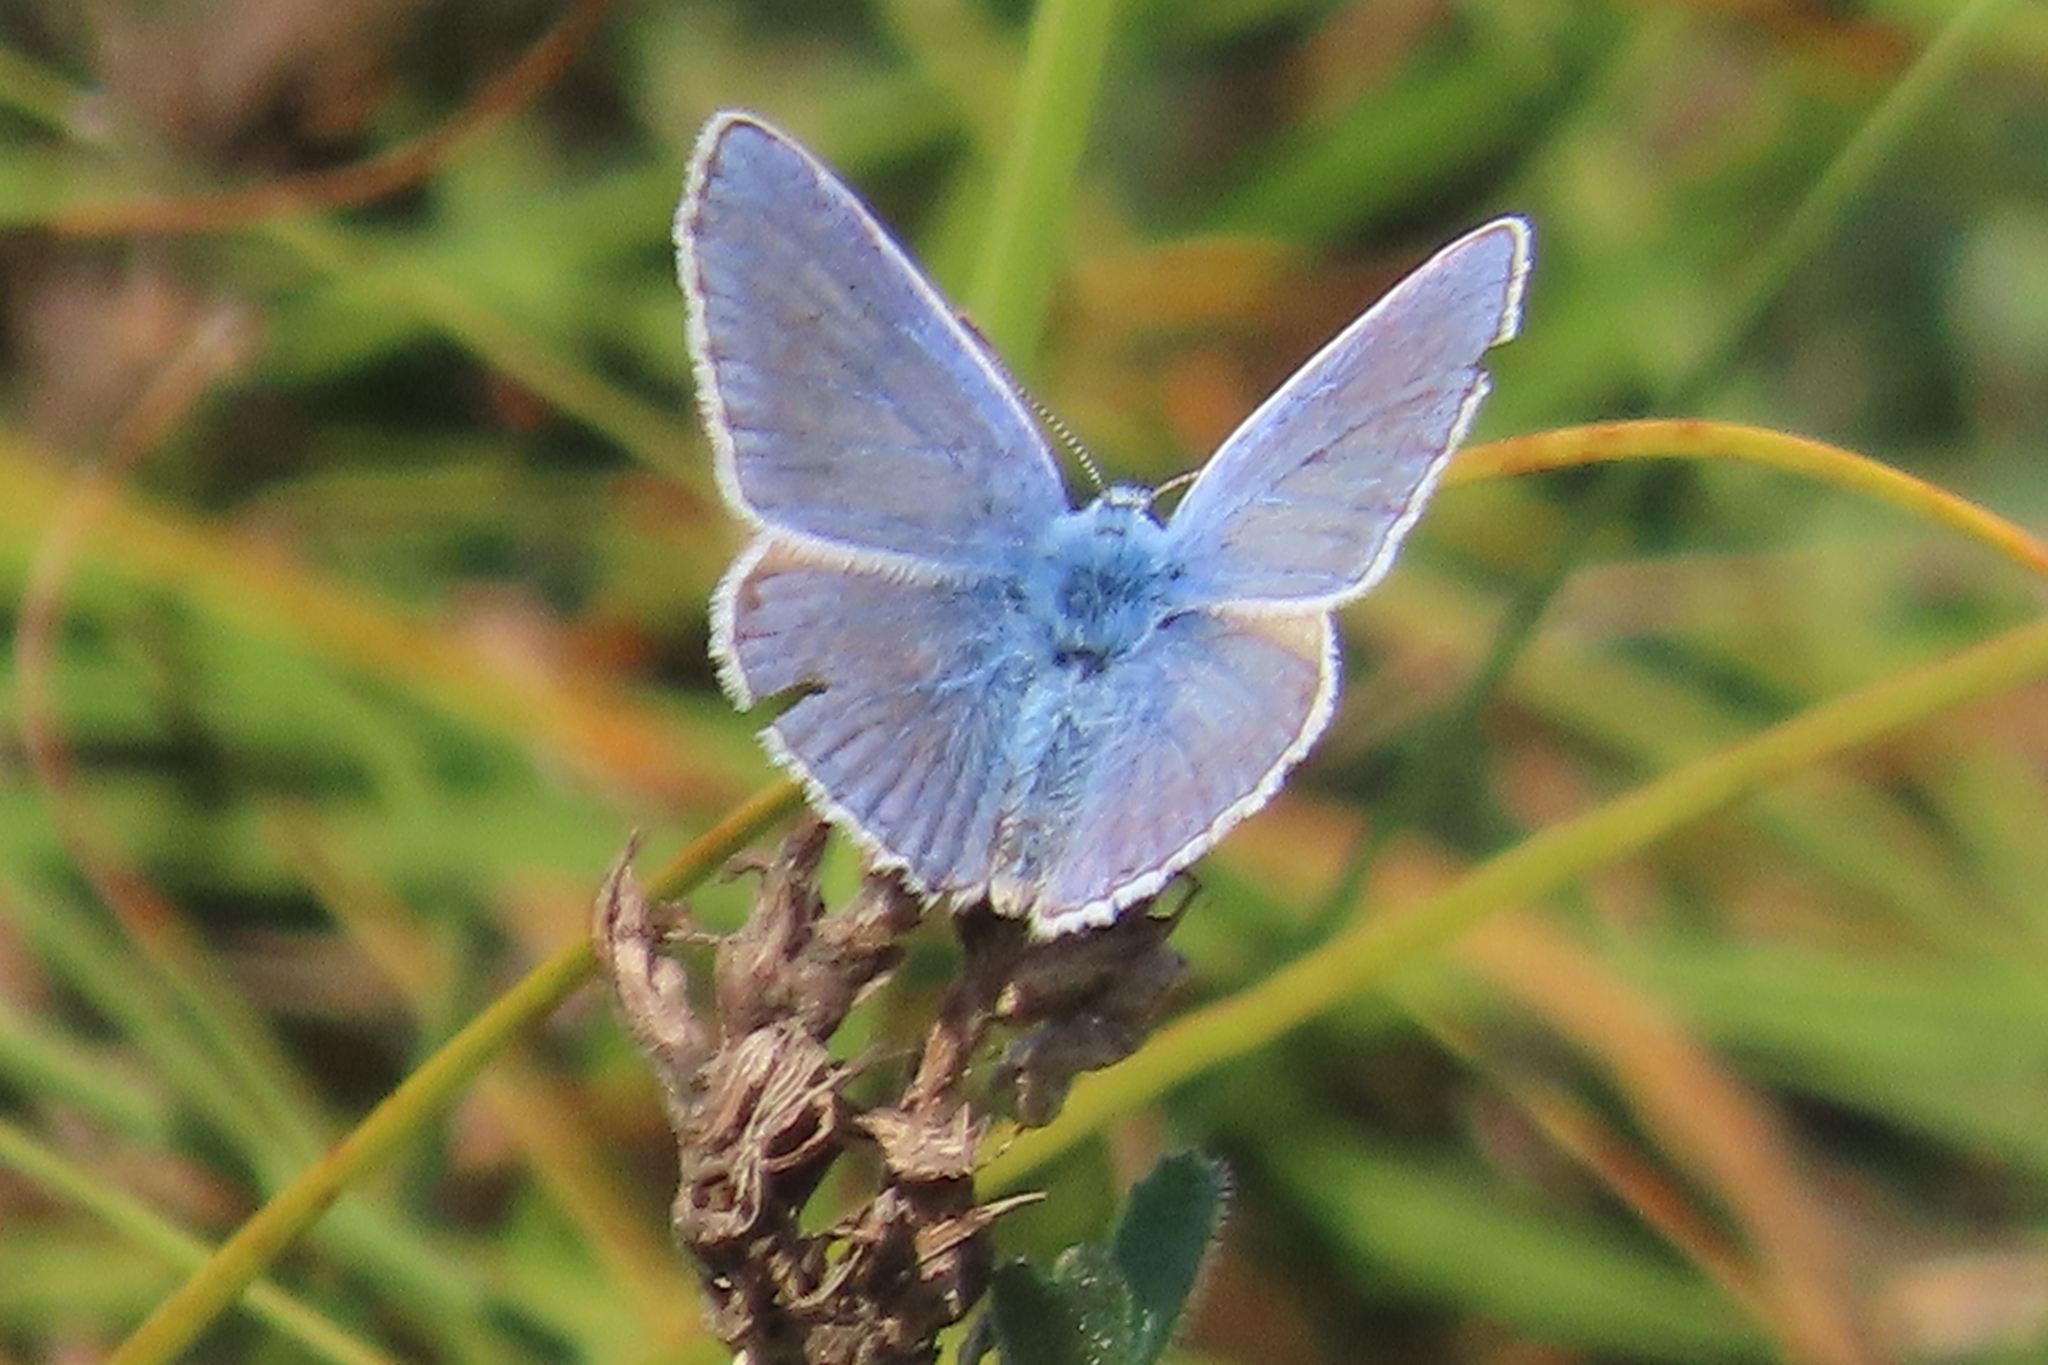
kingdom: Animalia
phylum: Arthropoda
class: Insecta
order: Lepidoptera
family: Lycaenidae
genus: Polyommatus
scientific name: Polyommatus icarus
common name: Common blue
